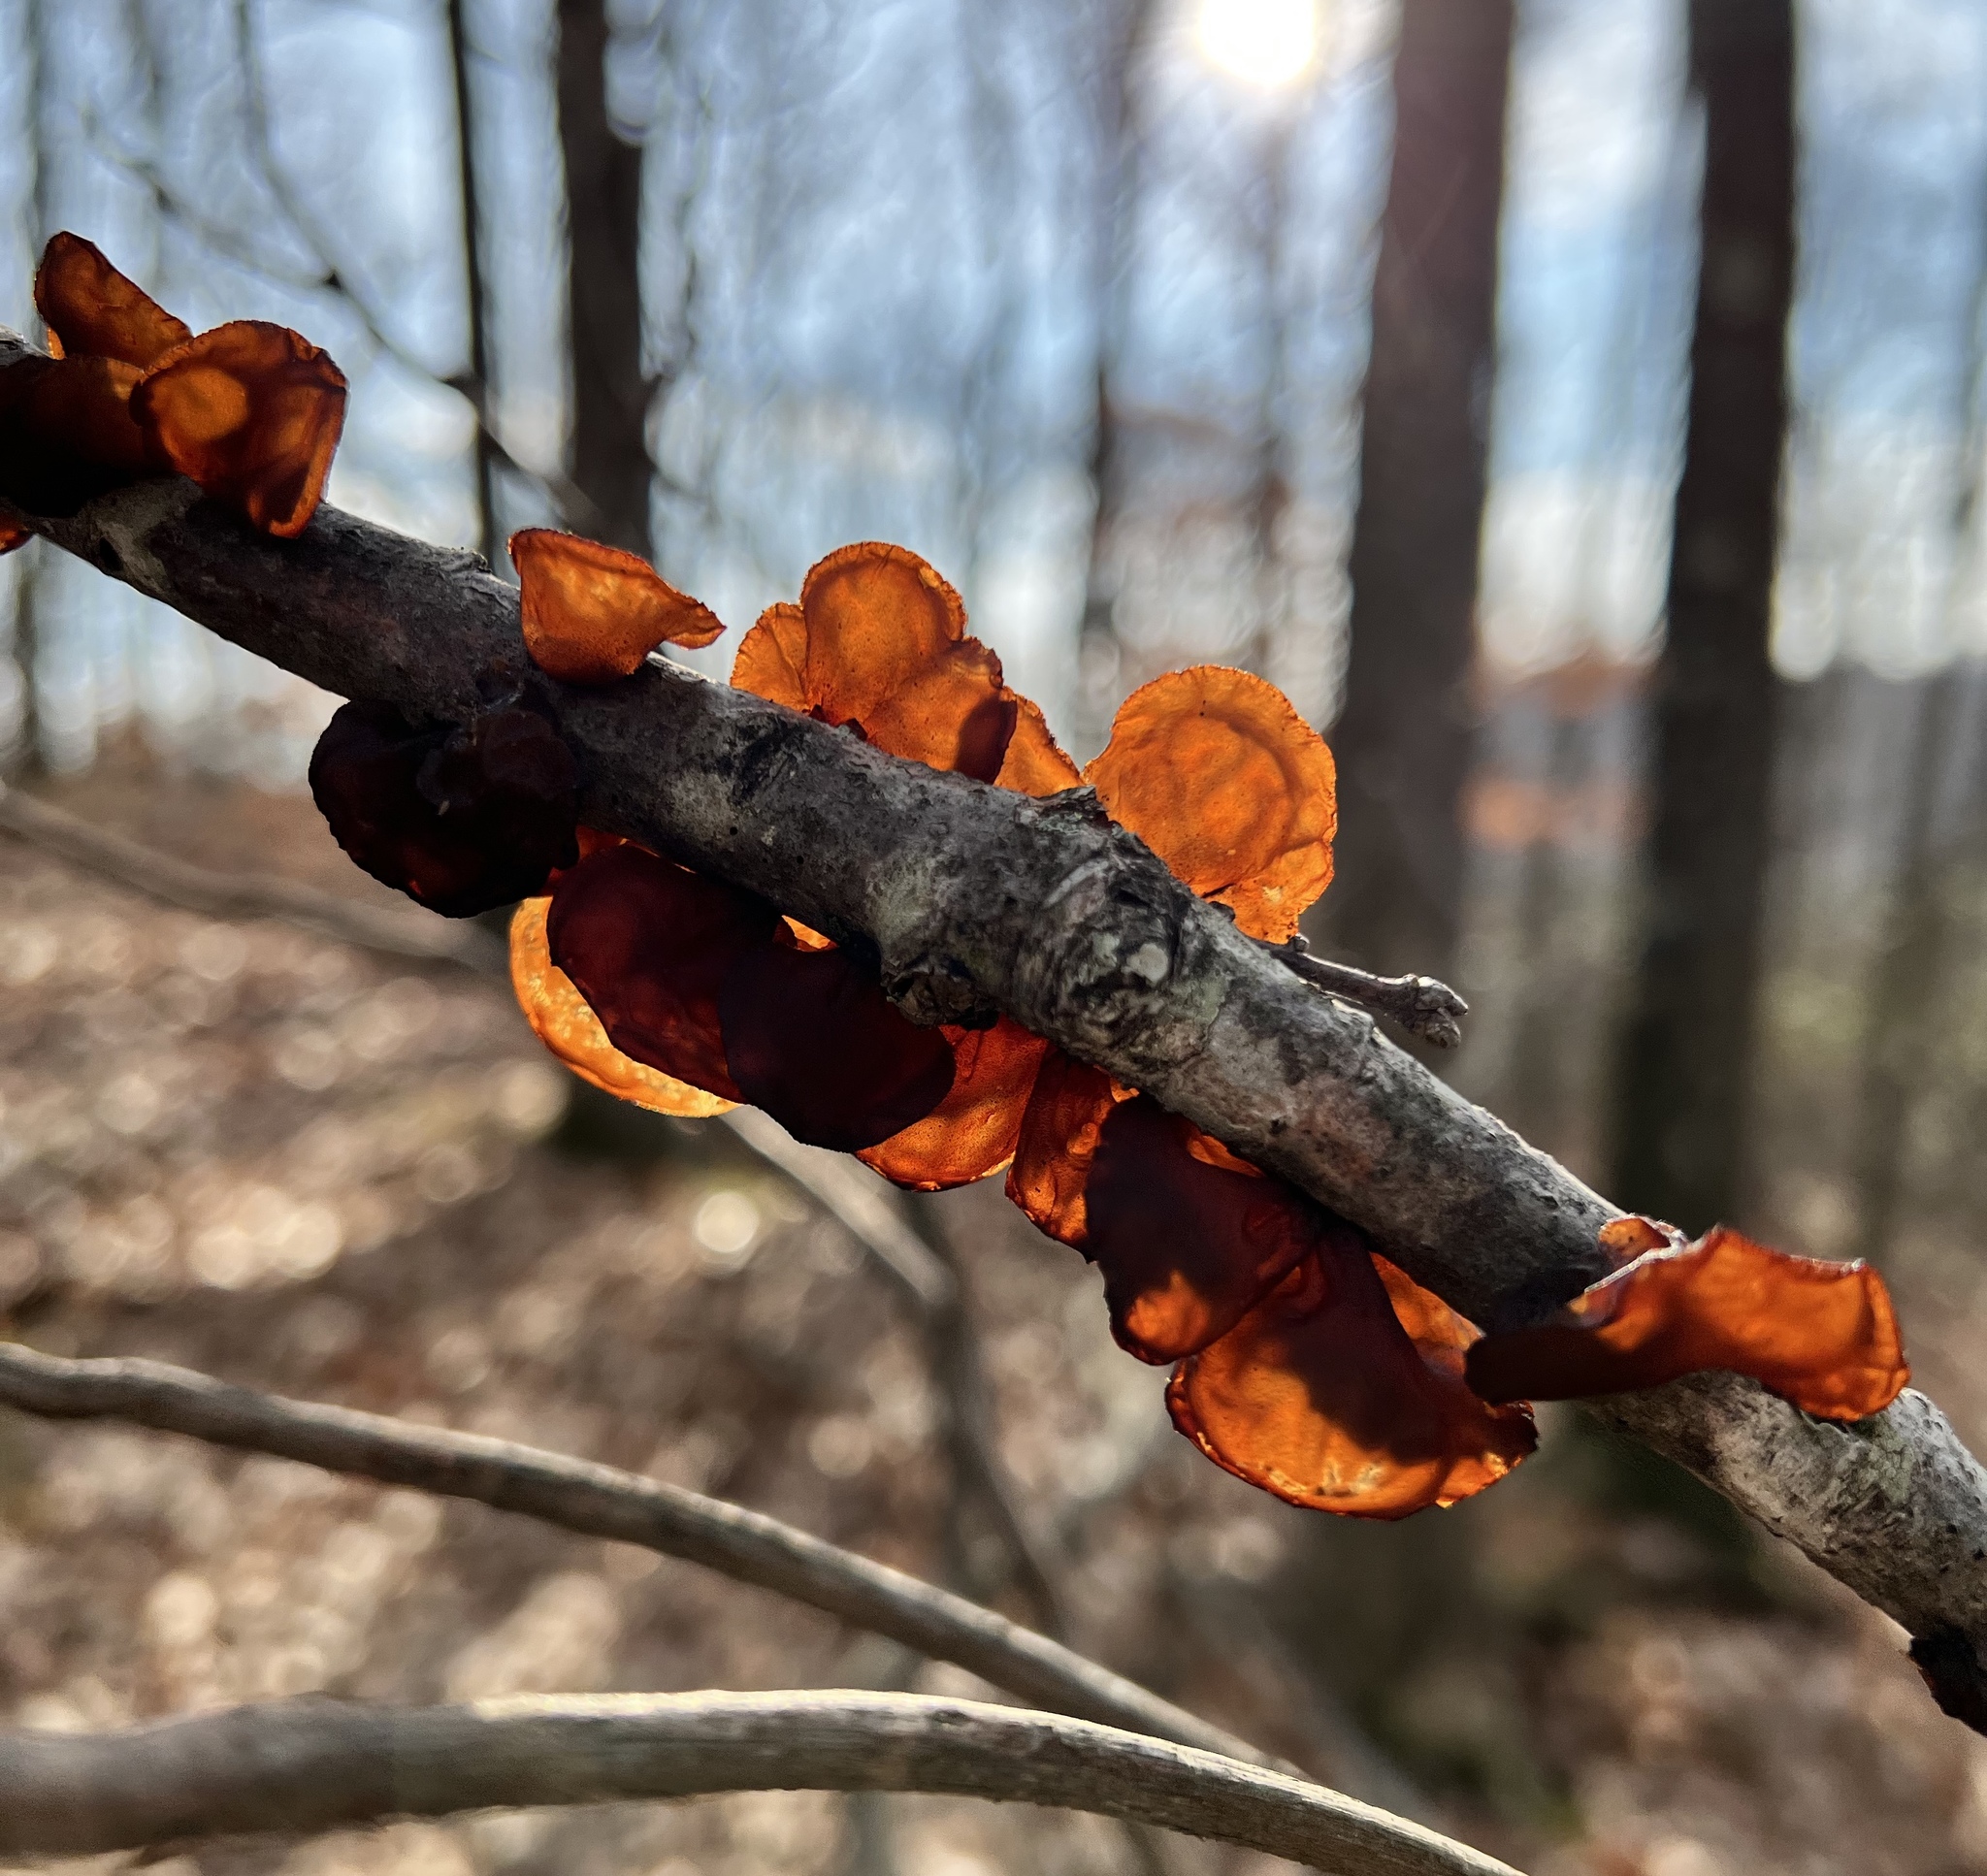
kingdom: Fungi
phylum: Basidiomycota
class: Agaricomycetes
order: Auriculariales
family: Auriculariaceae
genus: Exidia
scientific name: Exidia
